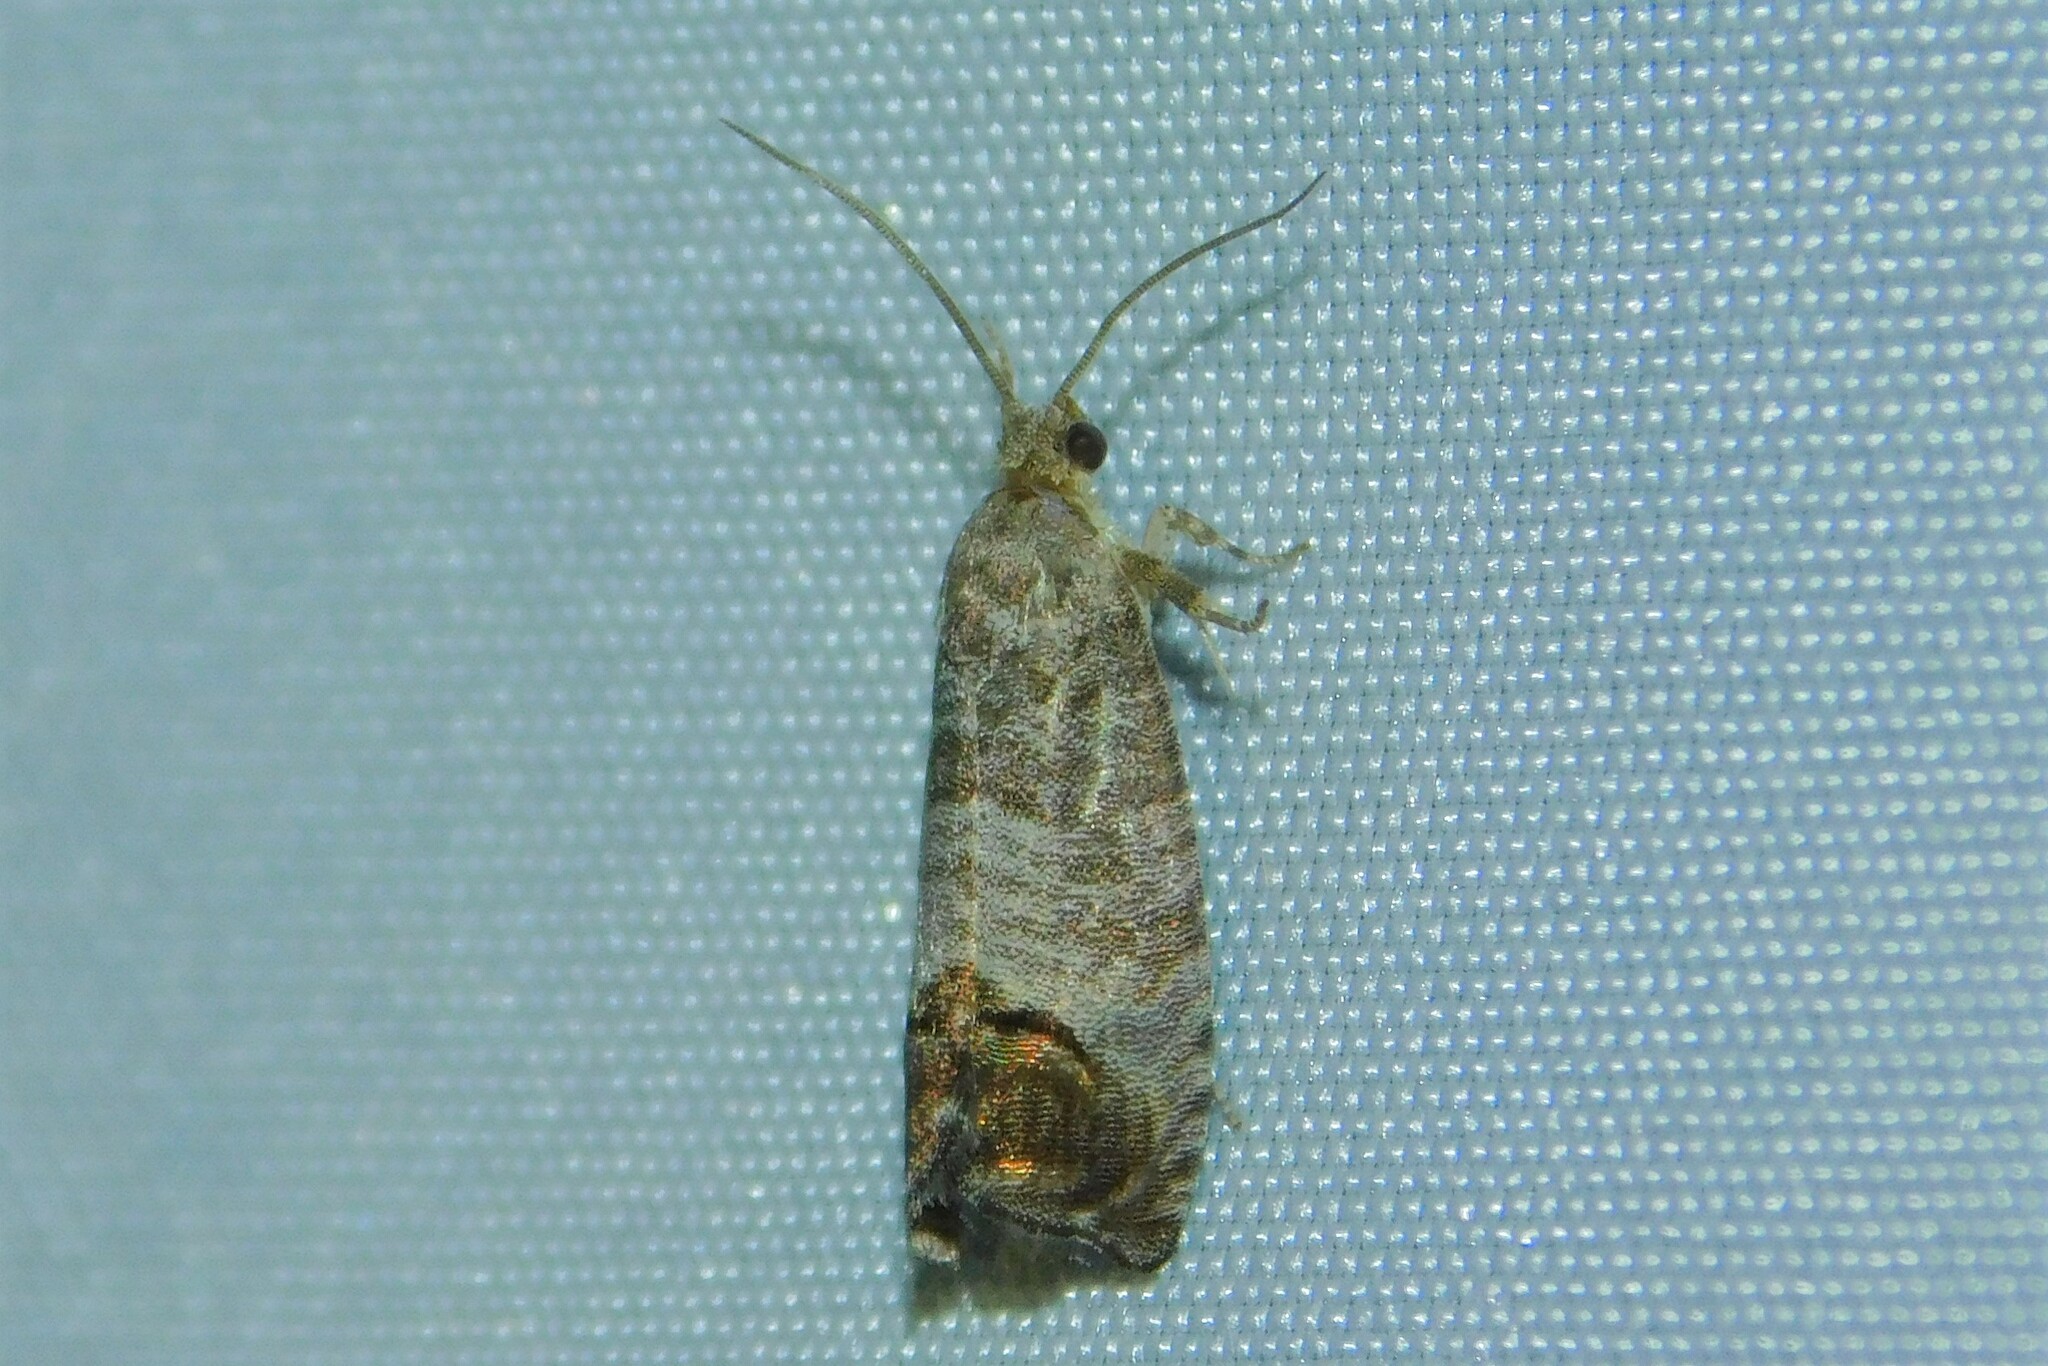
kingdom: Animalia
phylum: Arthropoda
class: Insecta
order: Lepidoptera
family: Tortricidae
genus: Cydia
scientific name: Cydia pomonella
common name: Codling moth
